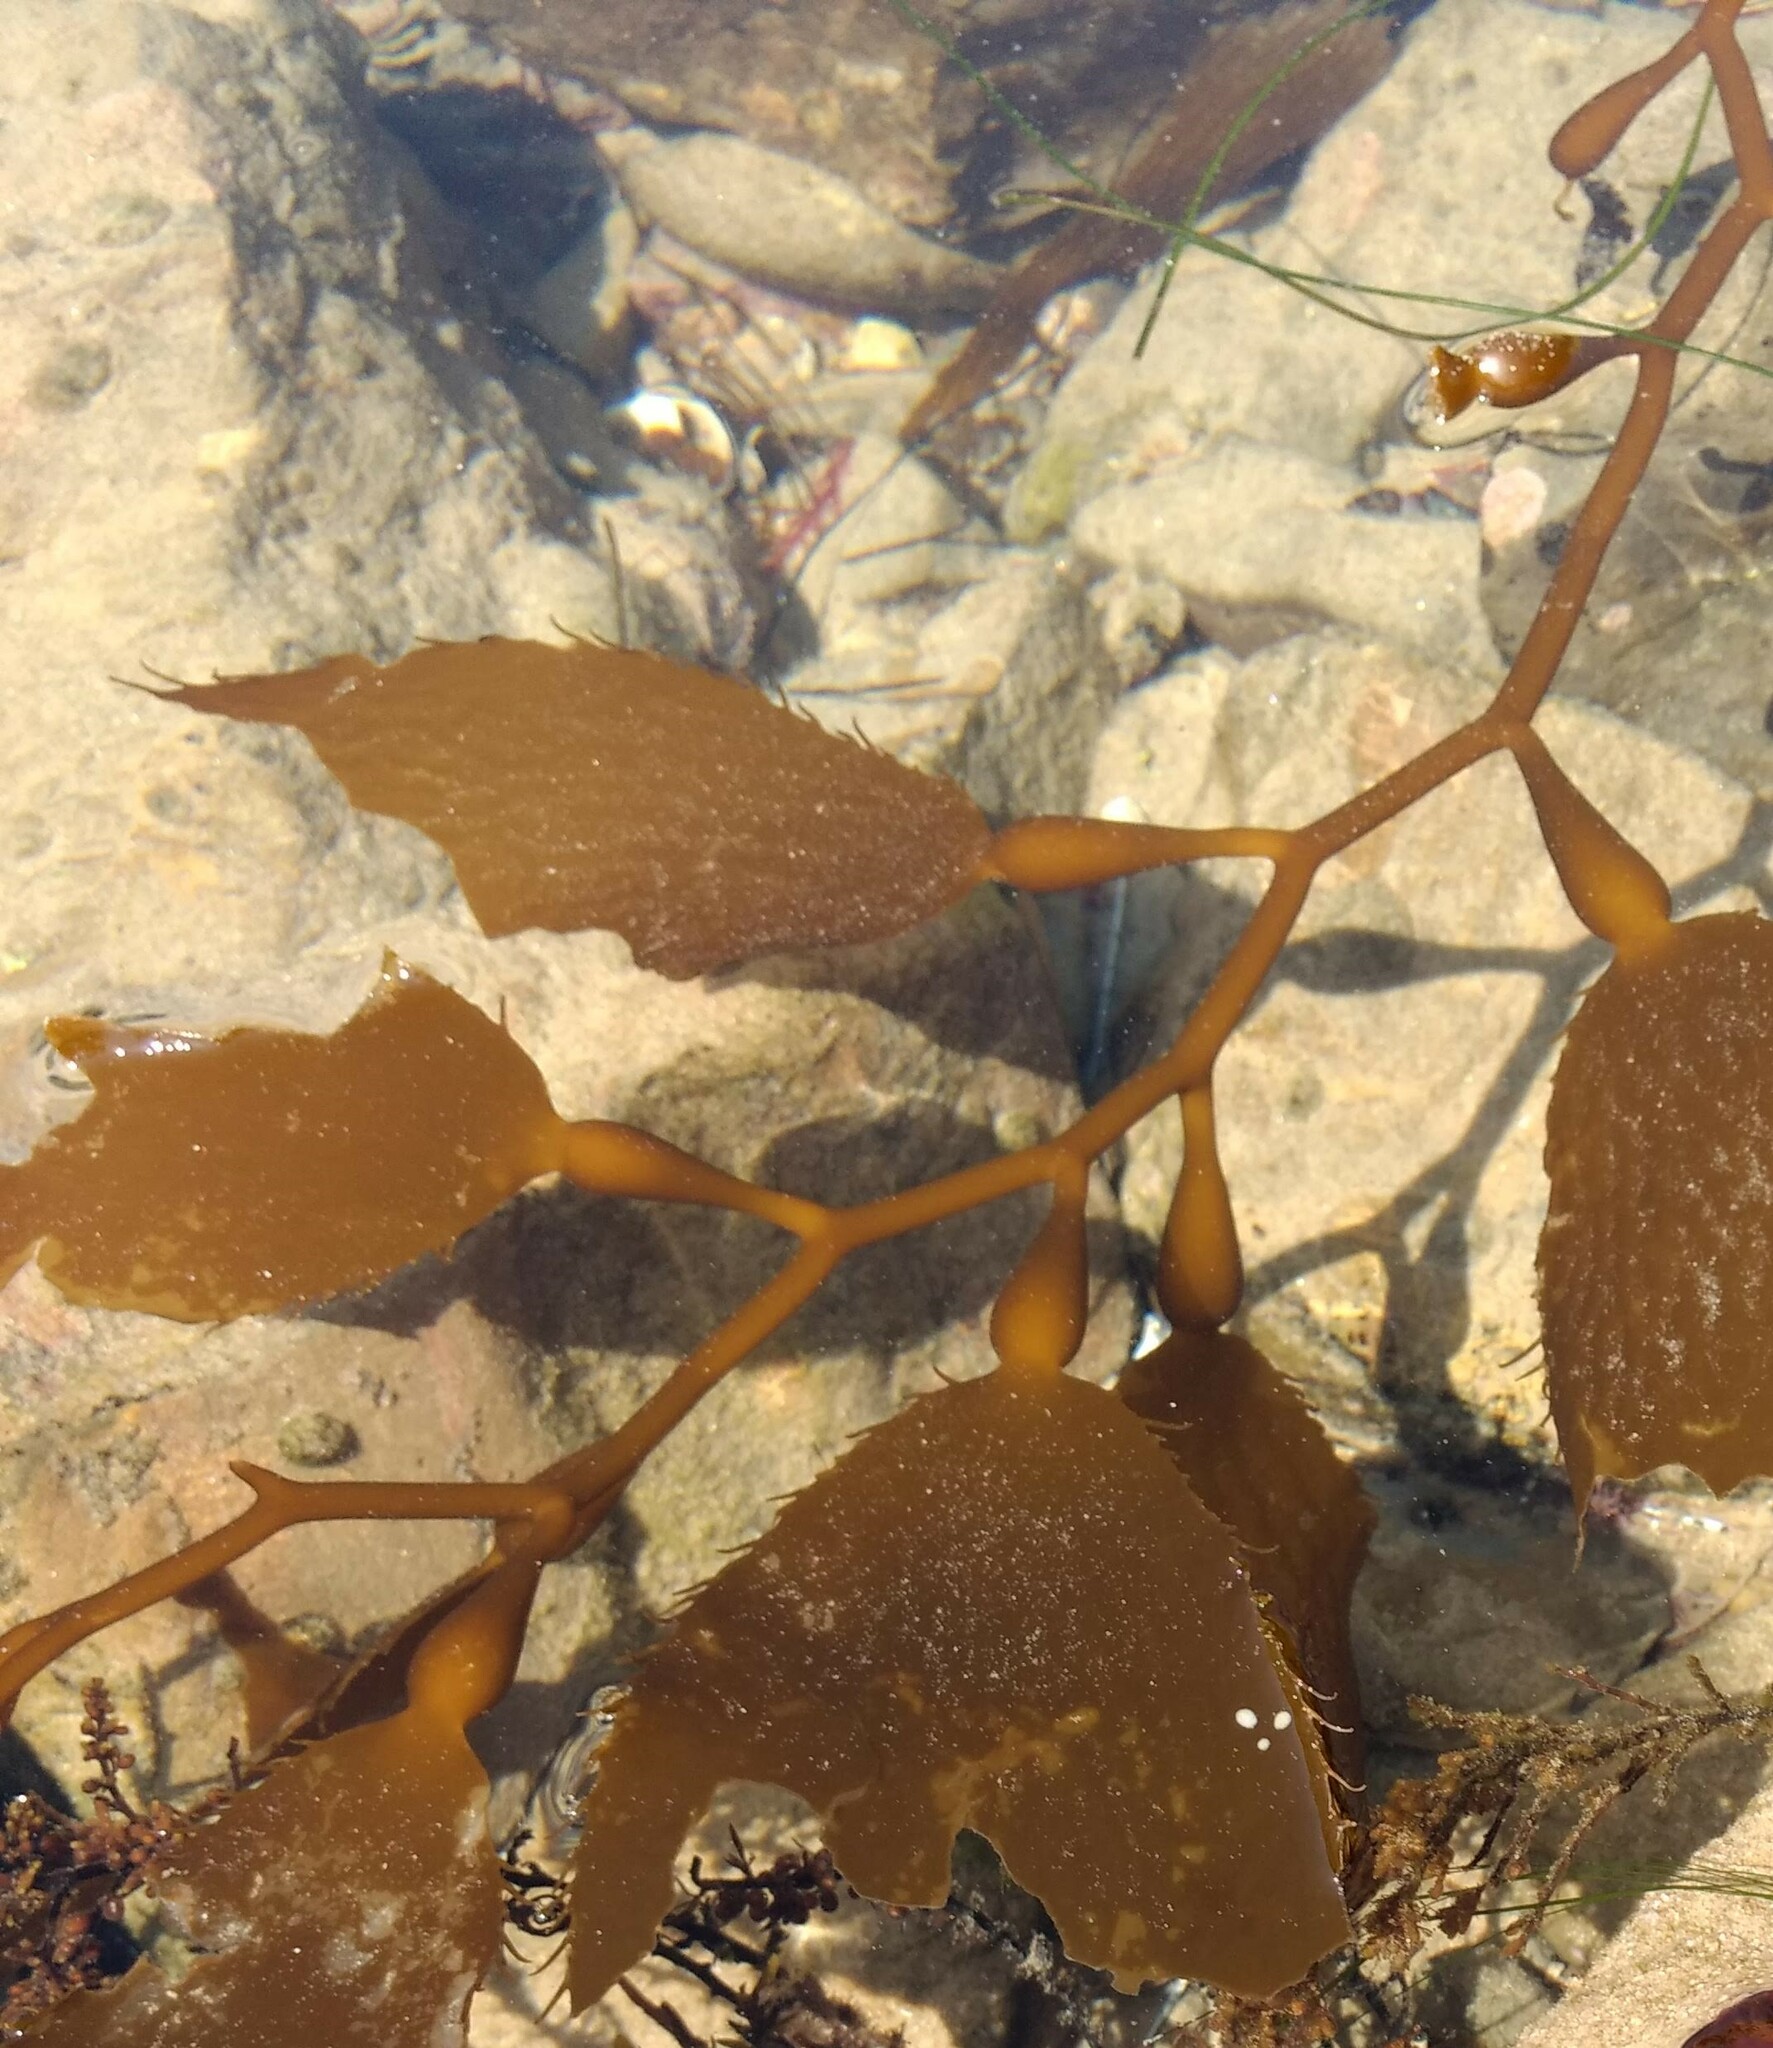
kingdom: Chromista
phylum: Ochrophyta
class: Phaeophyceae
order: Laminariales
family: Laminariaceae
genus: Macrocystis
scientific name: Macrocystis pyrifera
